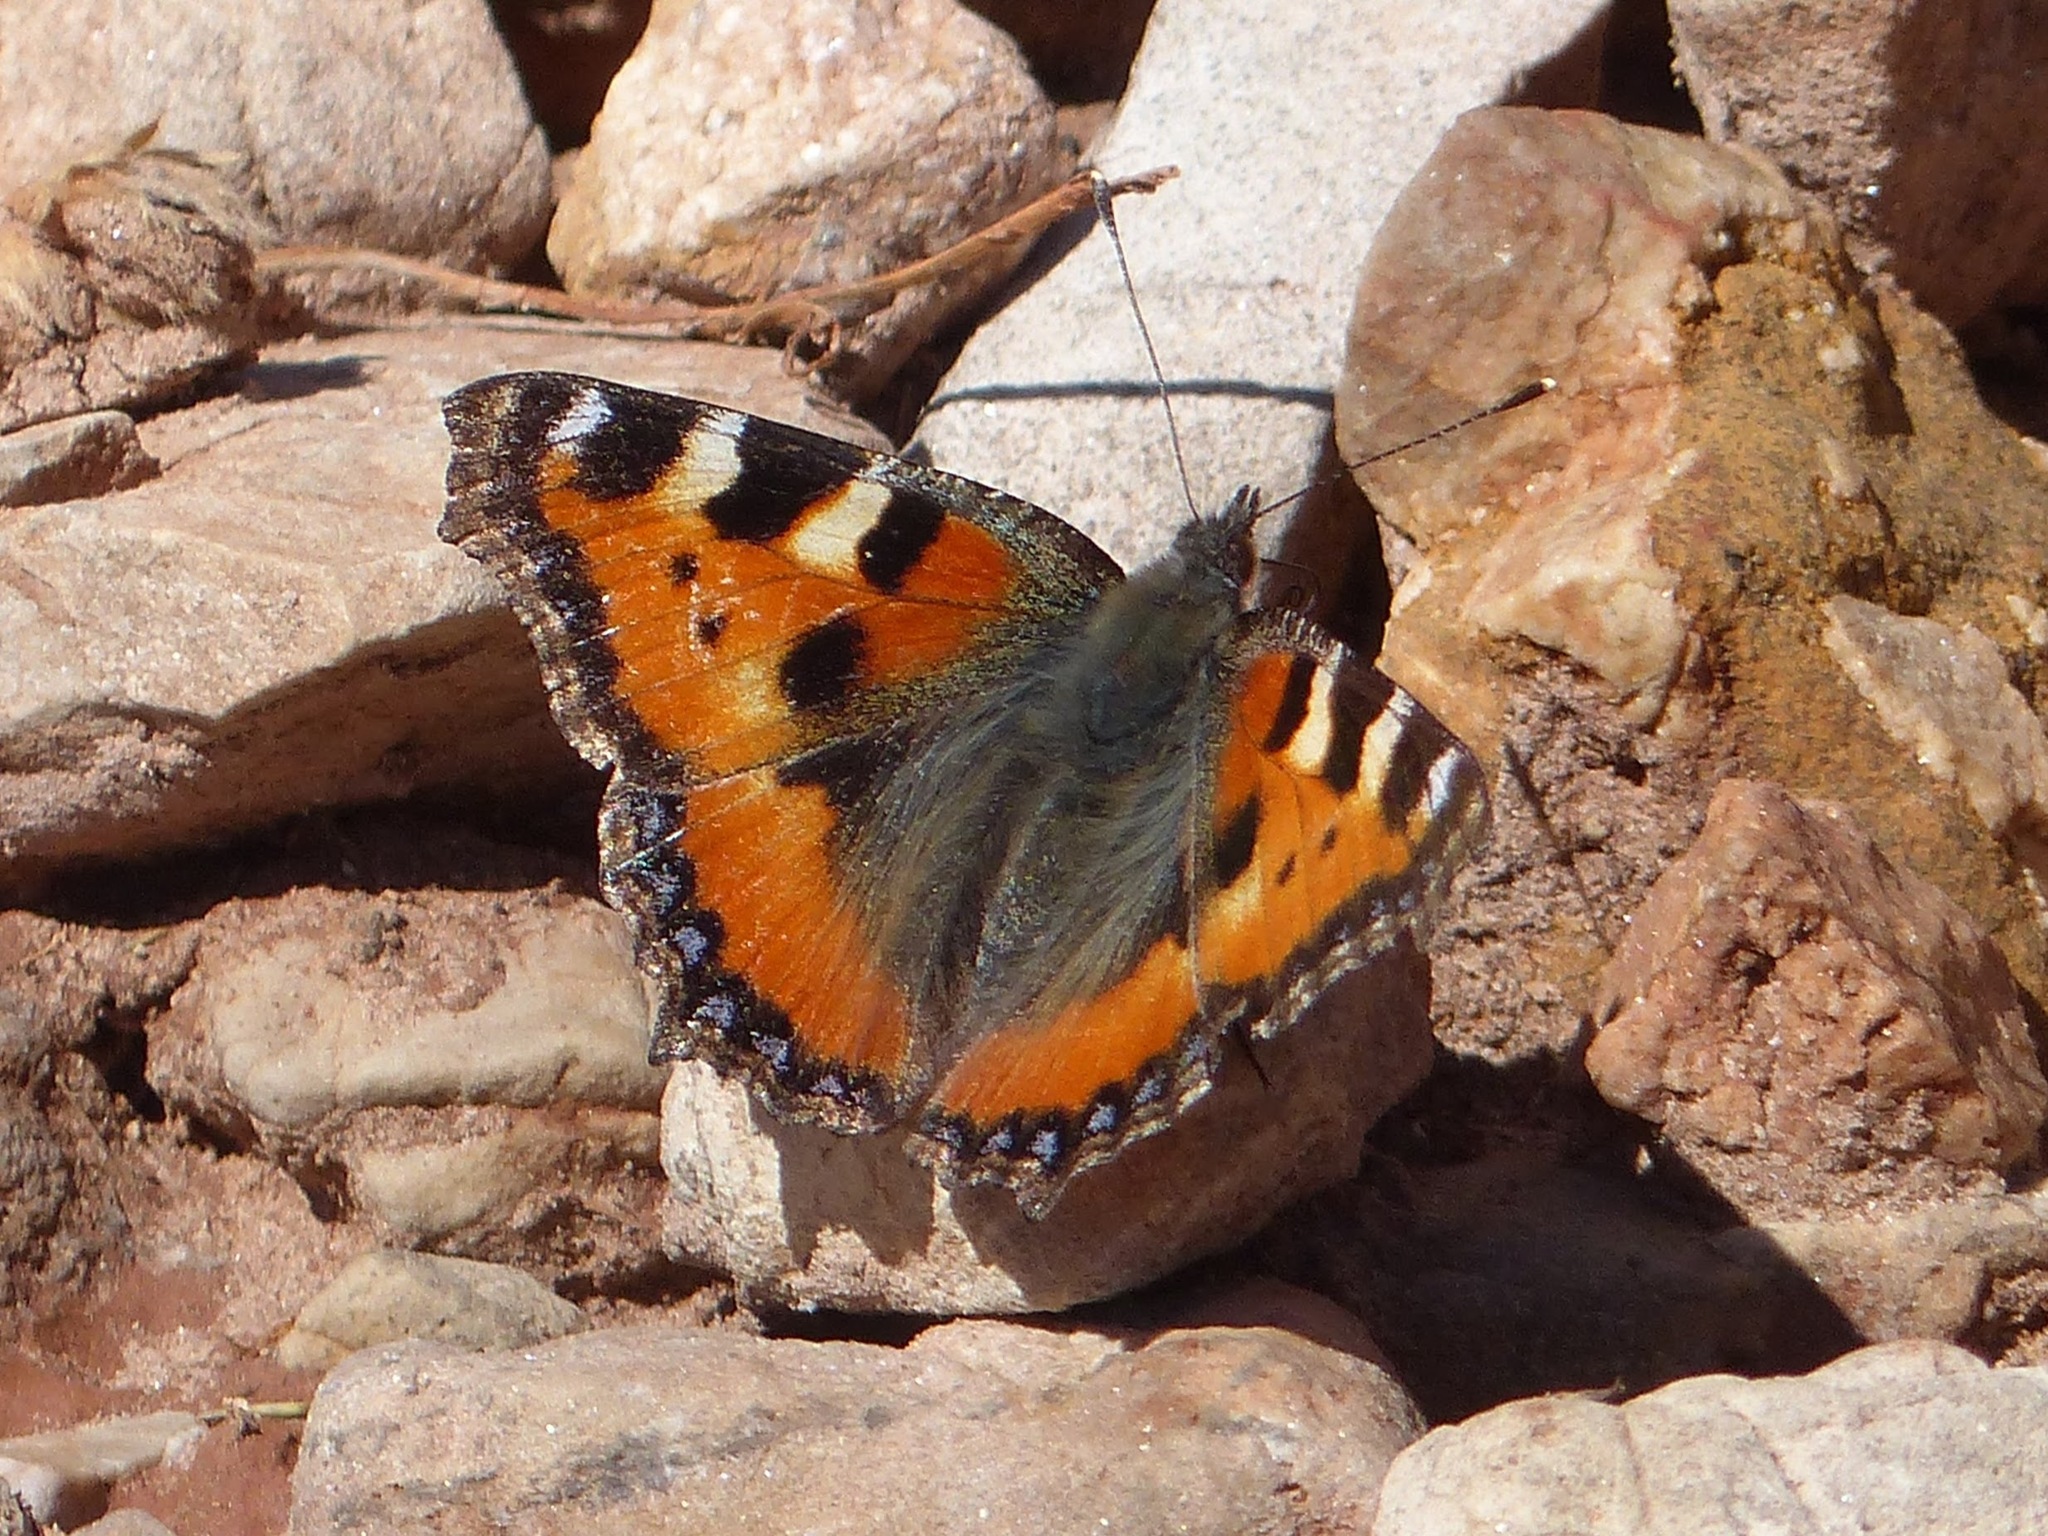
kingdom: Animalia
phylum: Arthropoda
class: Insecta
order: Lepidoptera
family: Nymphalidae
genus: Aglais
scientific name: Aglais urticae
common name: Small tortoiseshell
